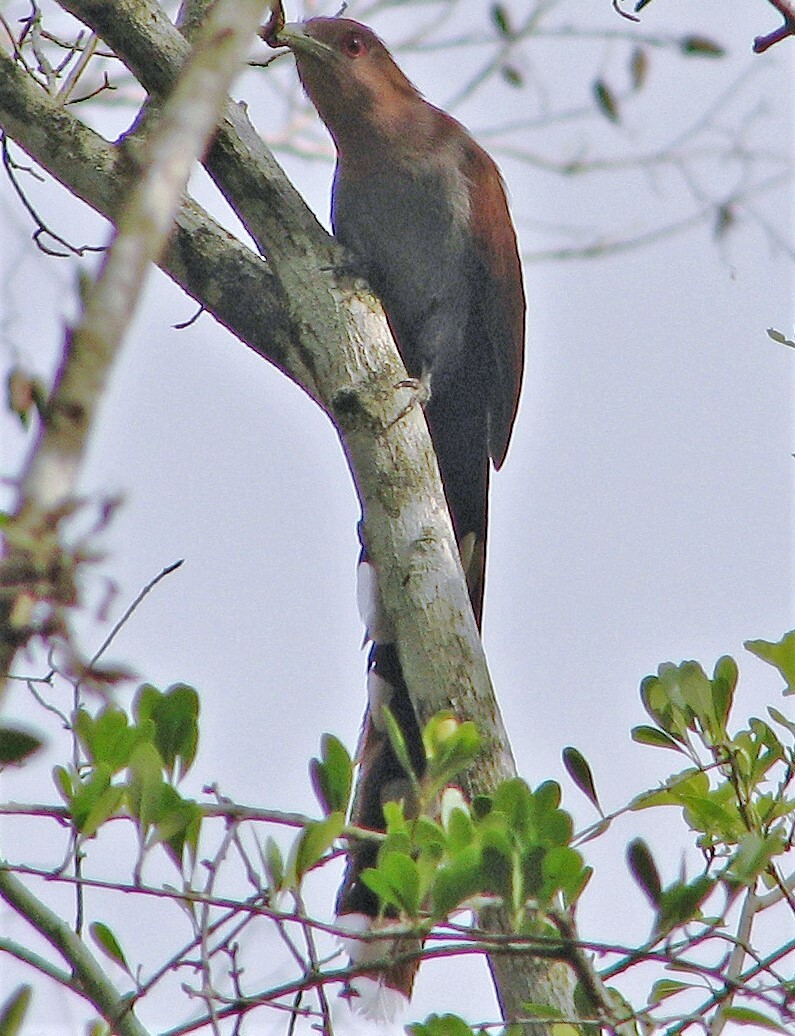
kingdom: Animalia
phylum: Chordata
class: Aves
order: Cuculiformes
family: Cuculidae
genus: Piaya
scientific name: Piaya cayana
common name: Squirrel cuckoo
